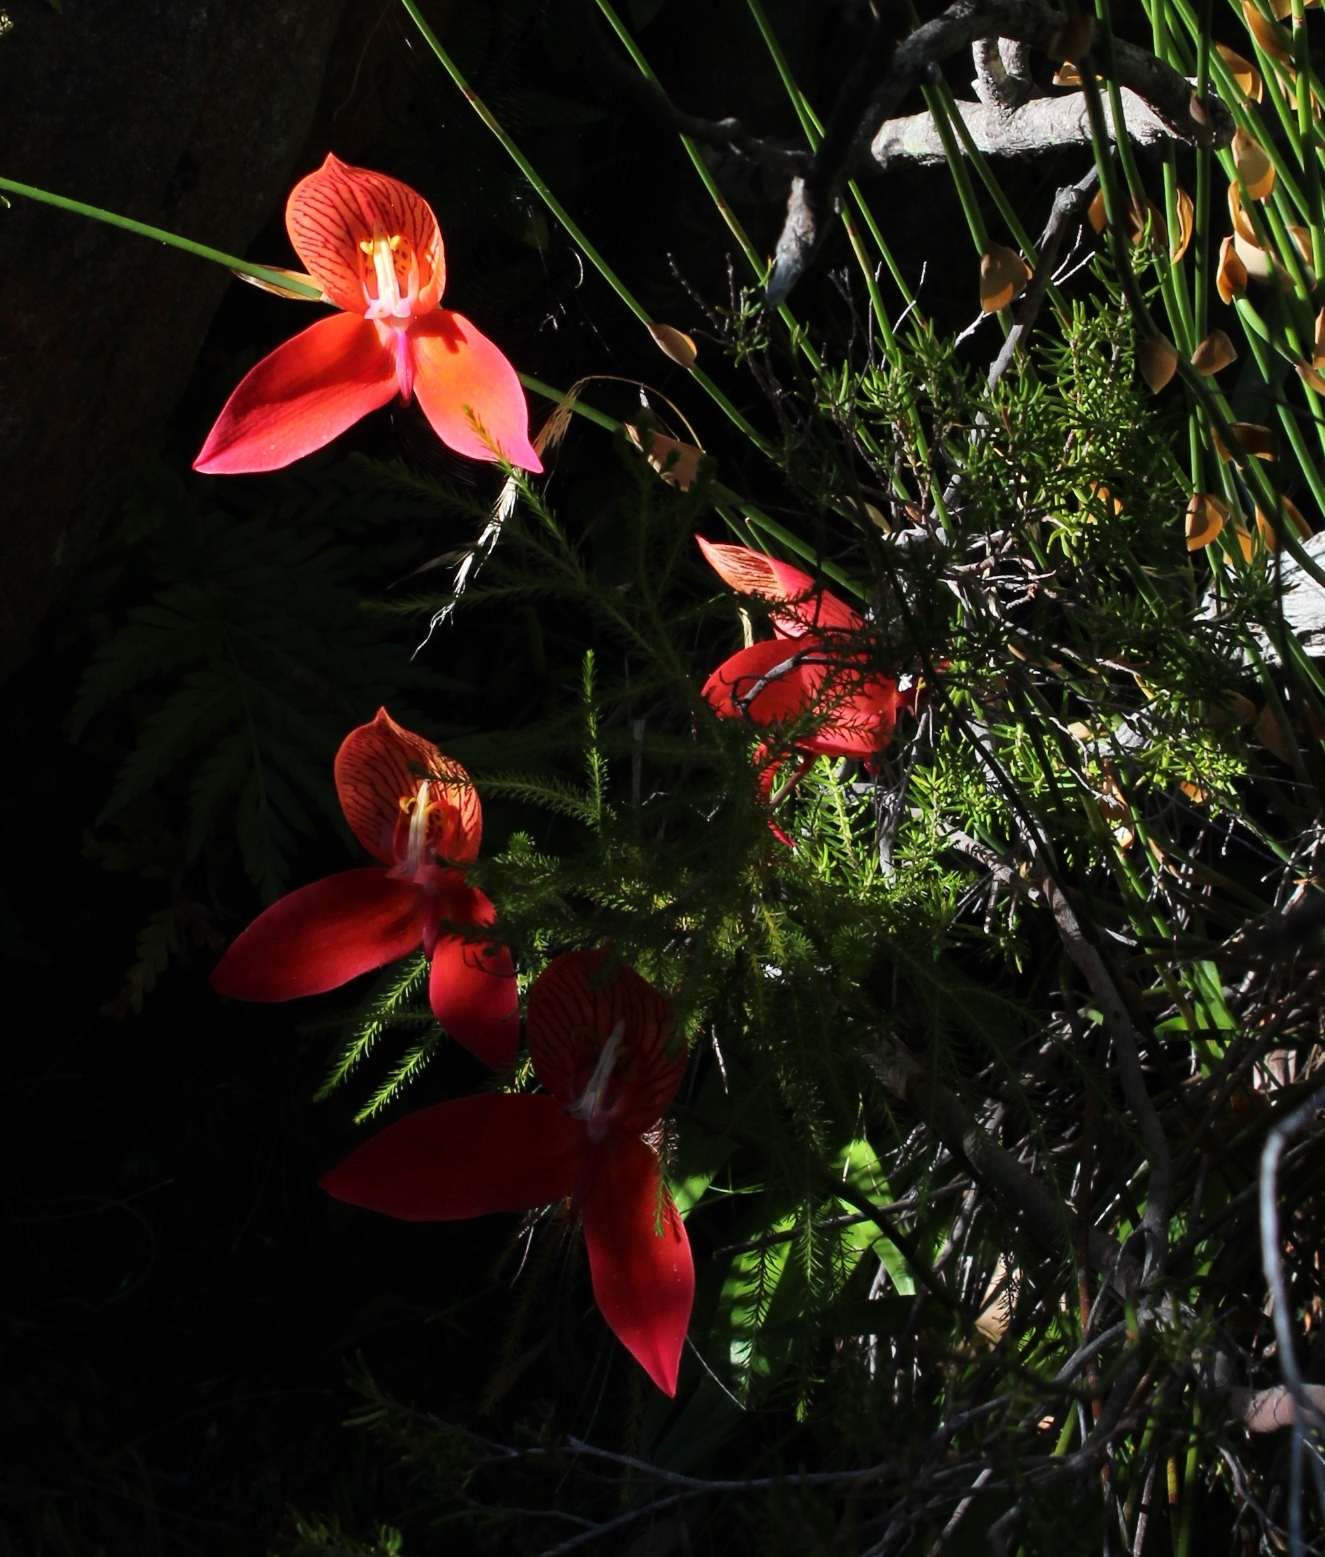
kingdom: Plantae
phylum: Tracheophyta
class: Liliopsida
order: Asparagales
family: Orchidaceae
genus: Disa
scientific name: Disa uniflora
